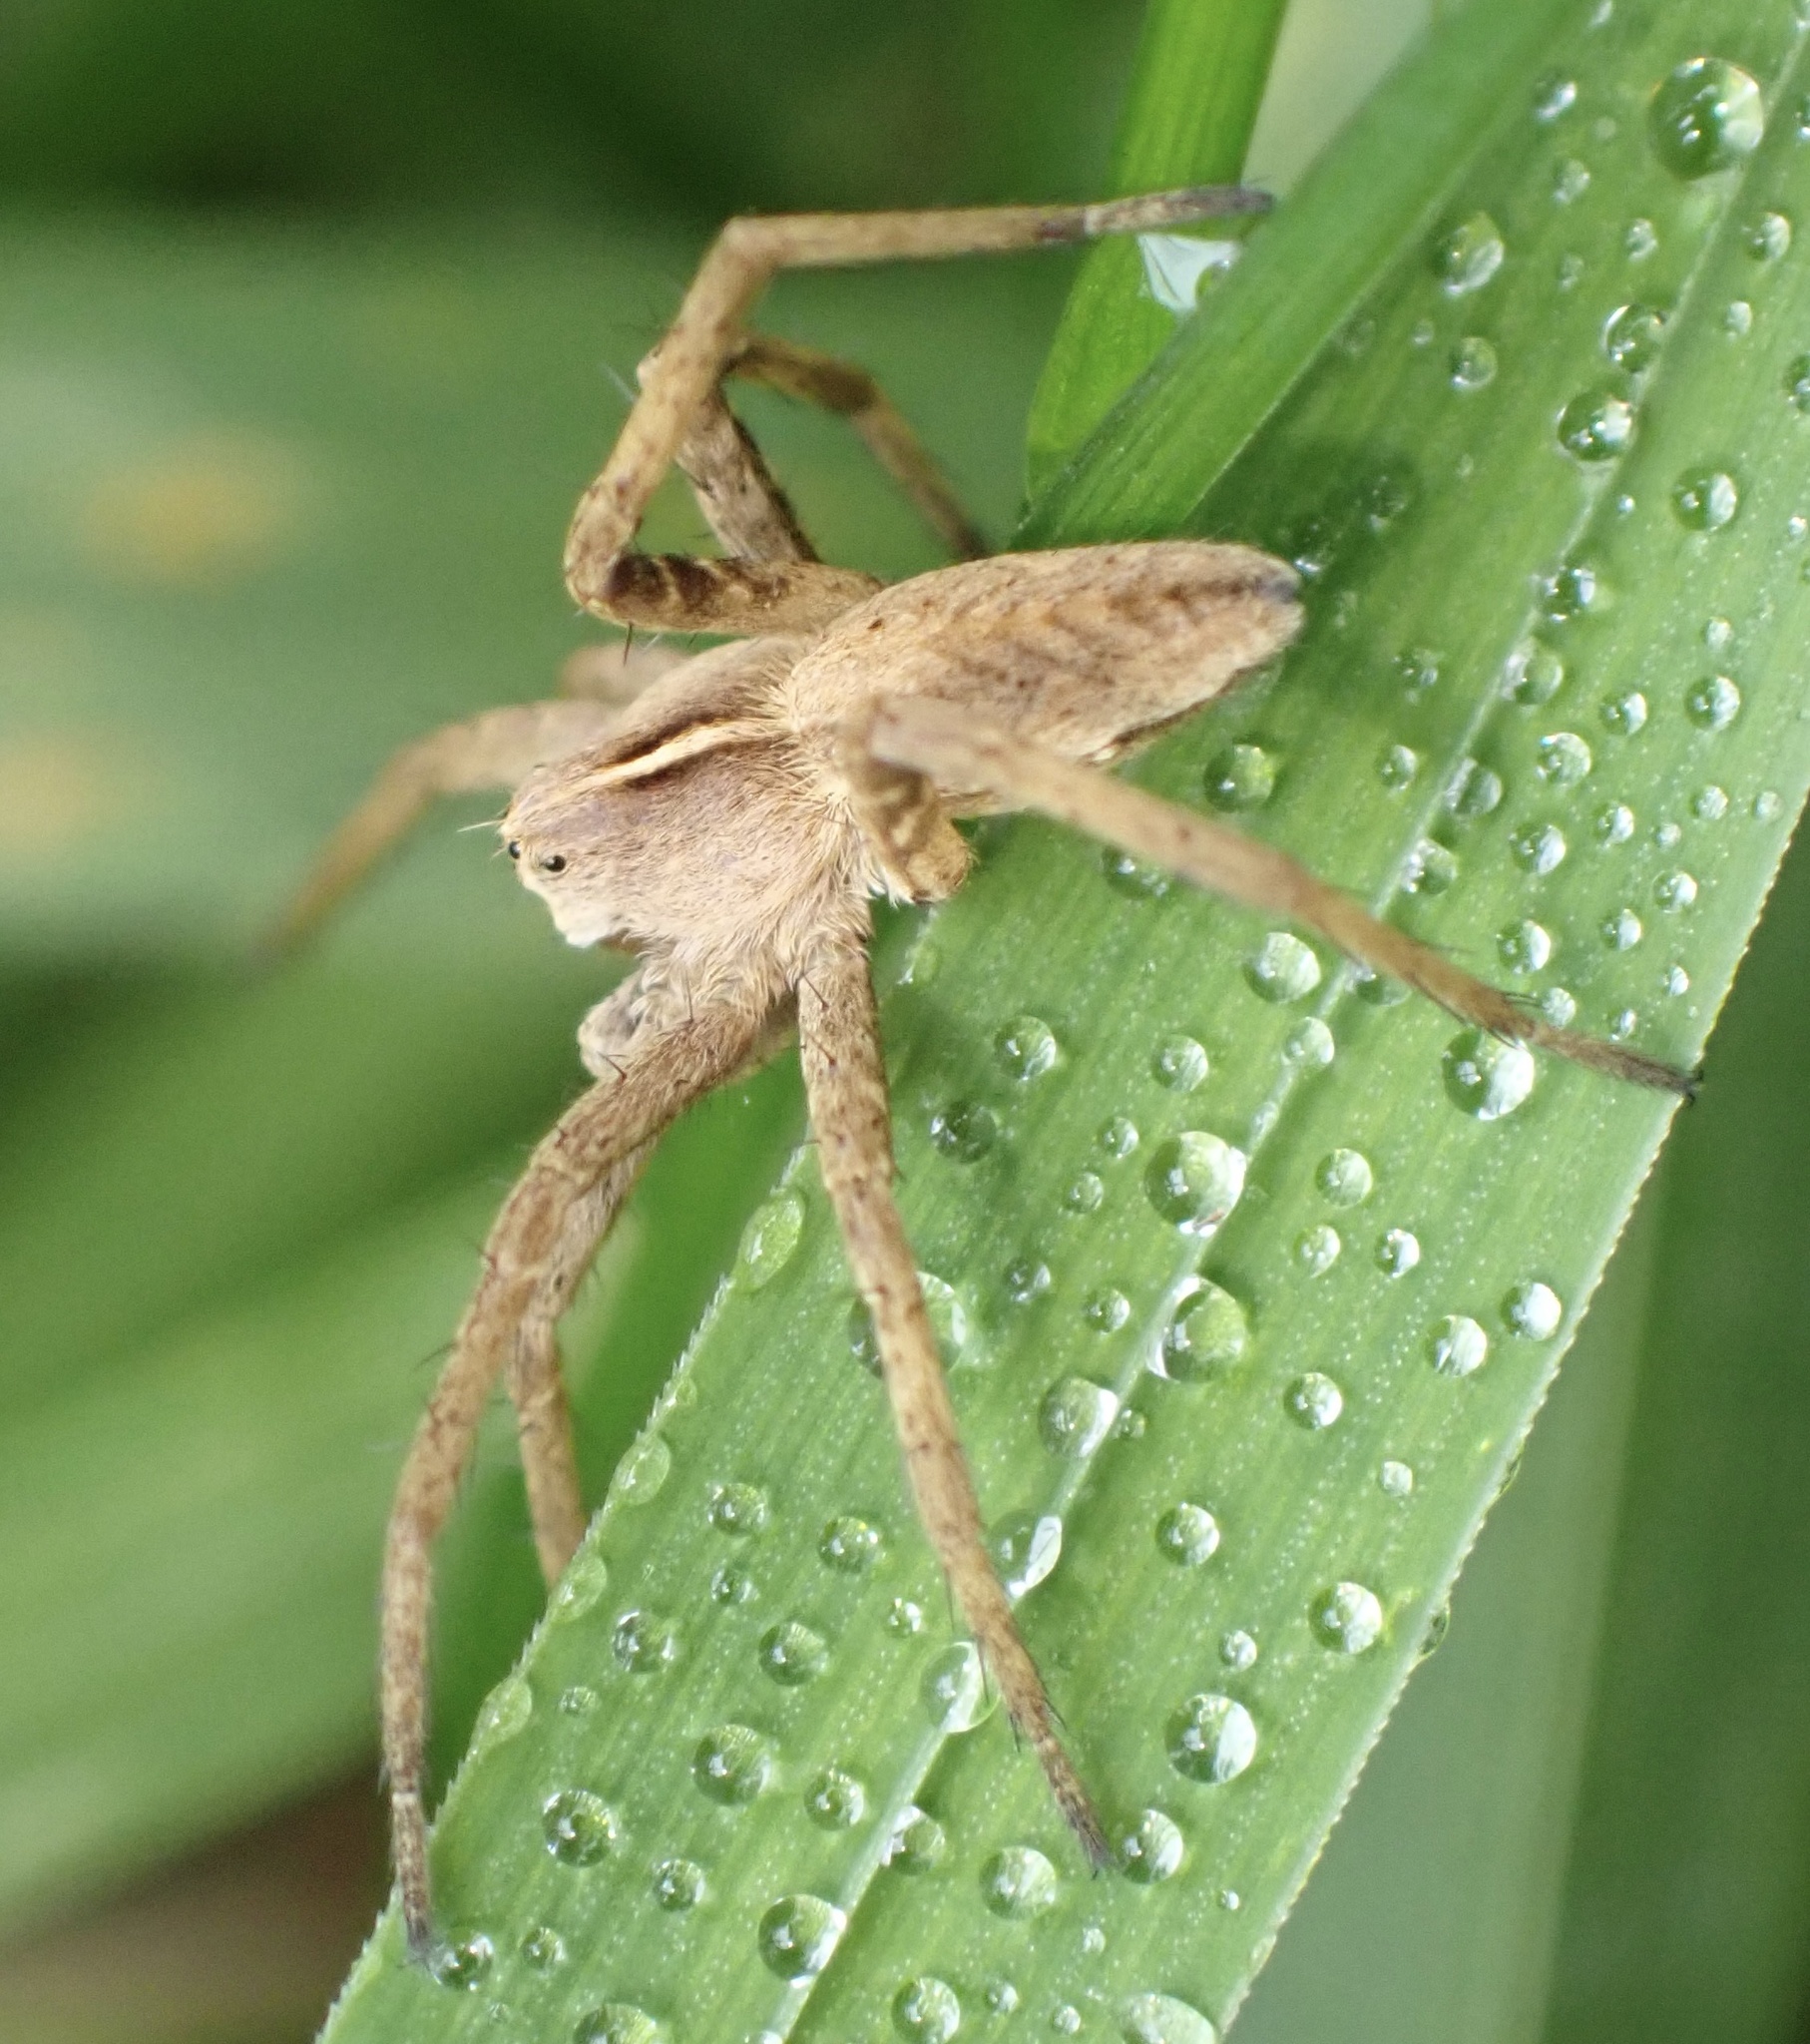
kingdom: Animalia
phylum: Arthropoda
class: Arachnida
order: Araneae
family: Pisauridae
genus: Pisaura
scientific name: Pisaura mirabilis
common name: Tent spider
